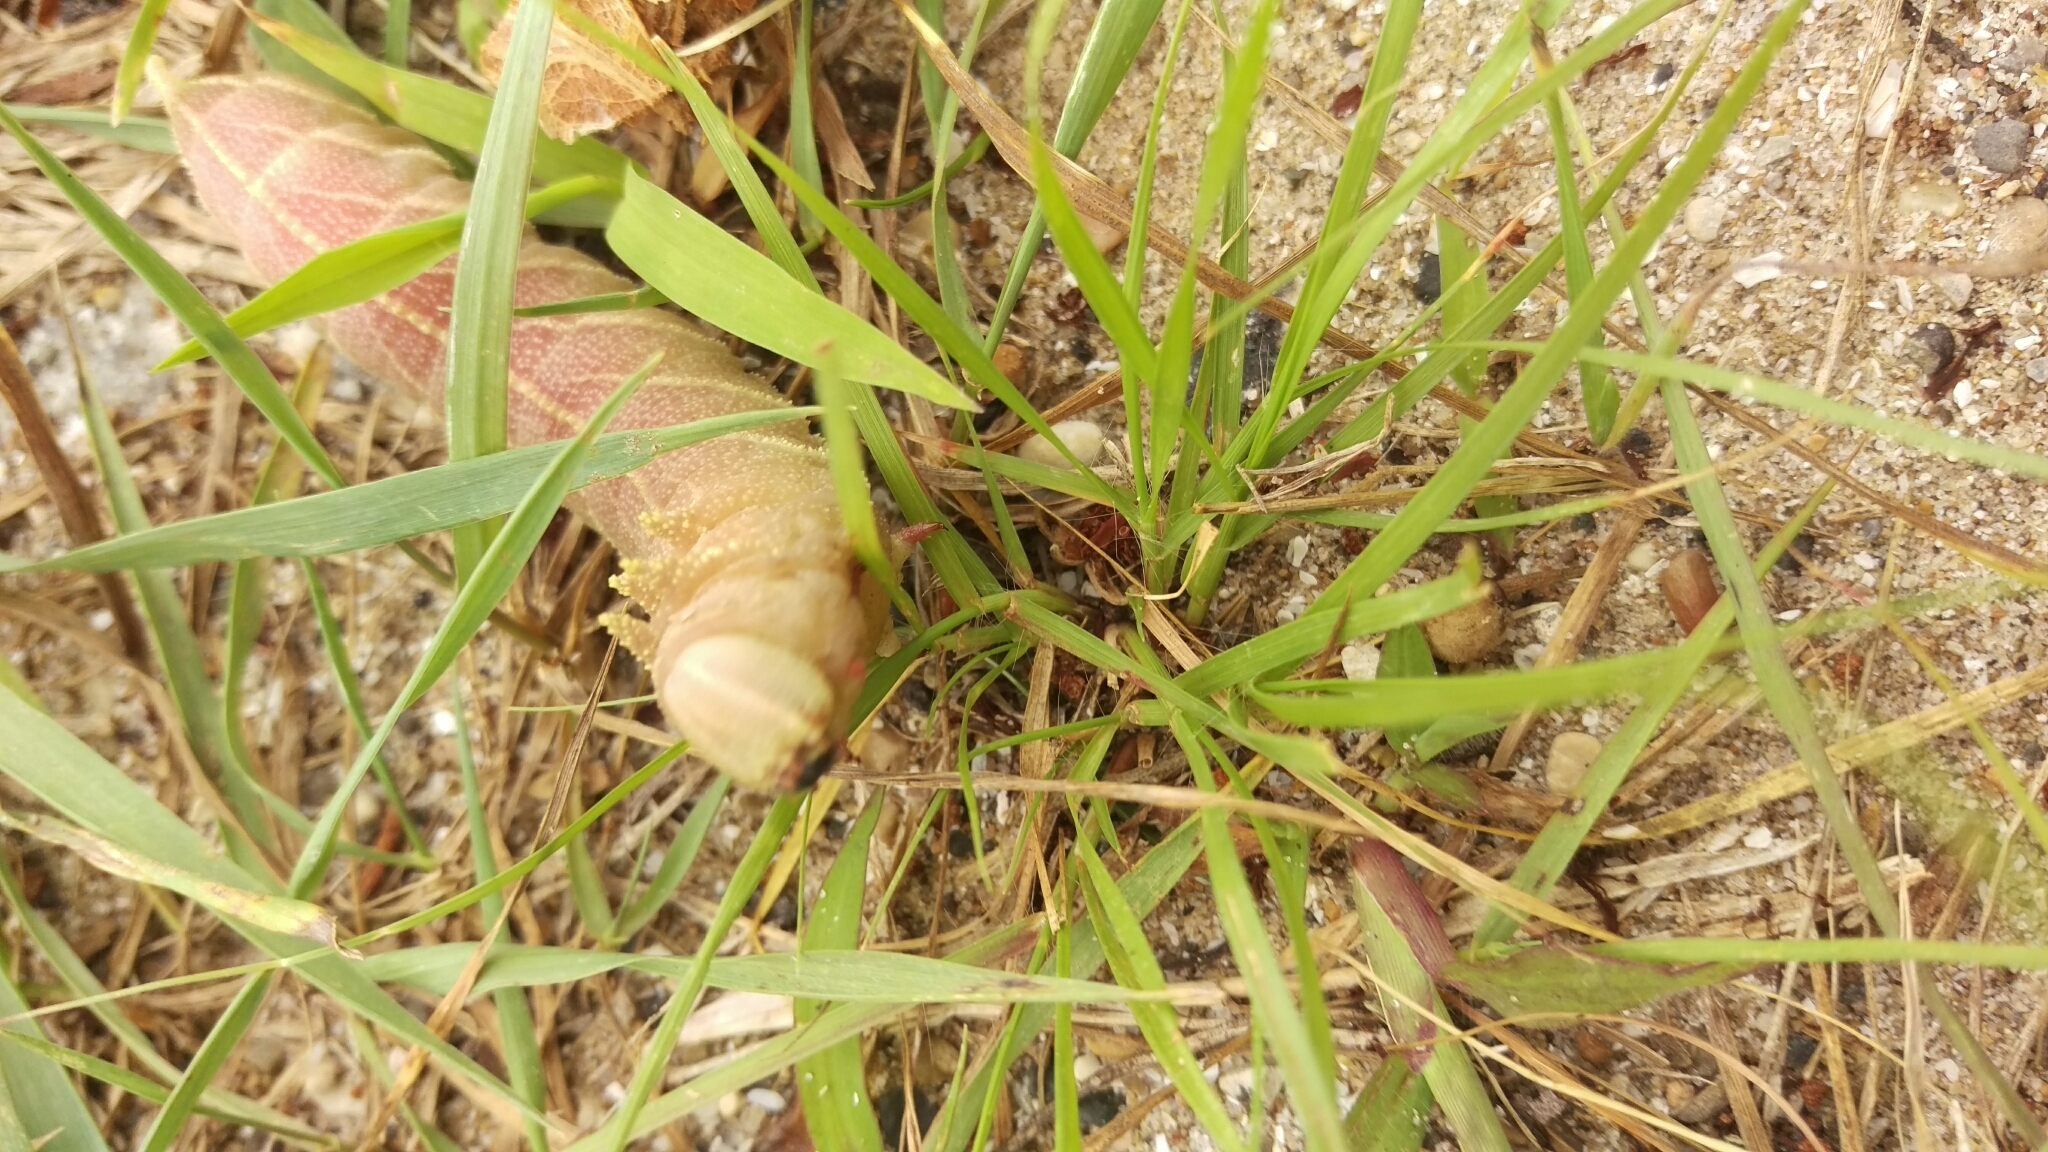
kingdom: Animalia
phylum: Arthropoda
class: Insecta
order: Lepidoptera
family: Sphingidae
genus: Ceratomia
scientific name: Ceratomia amyntor
